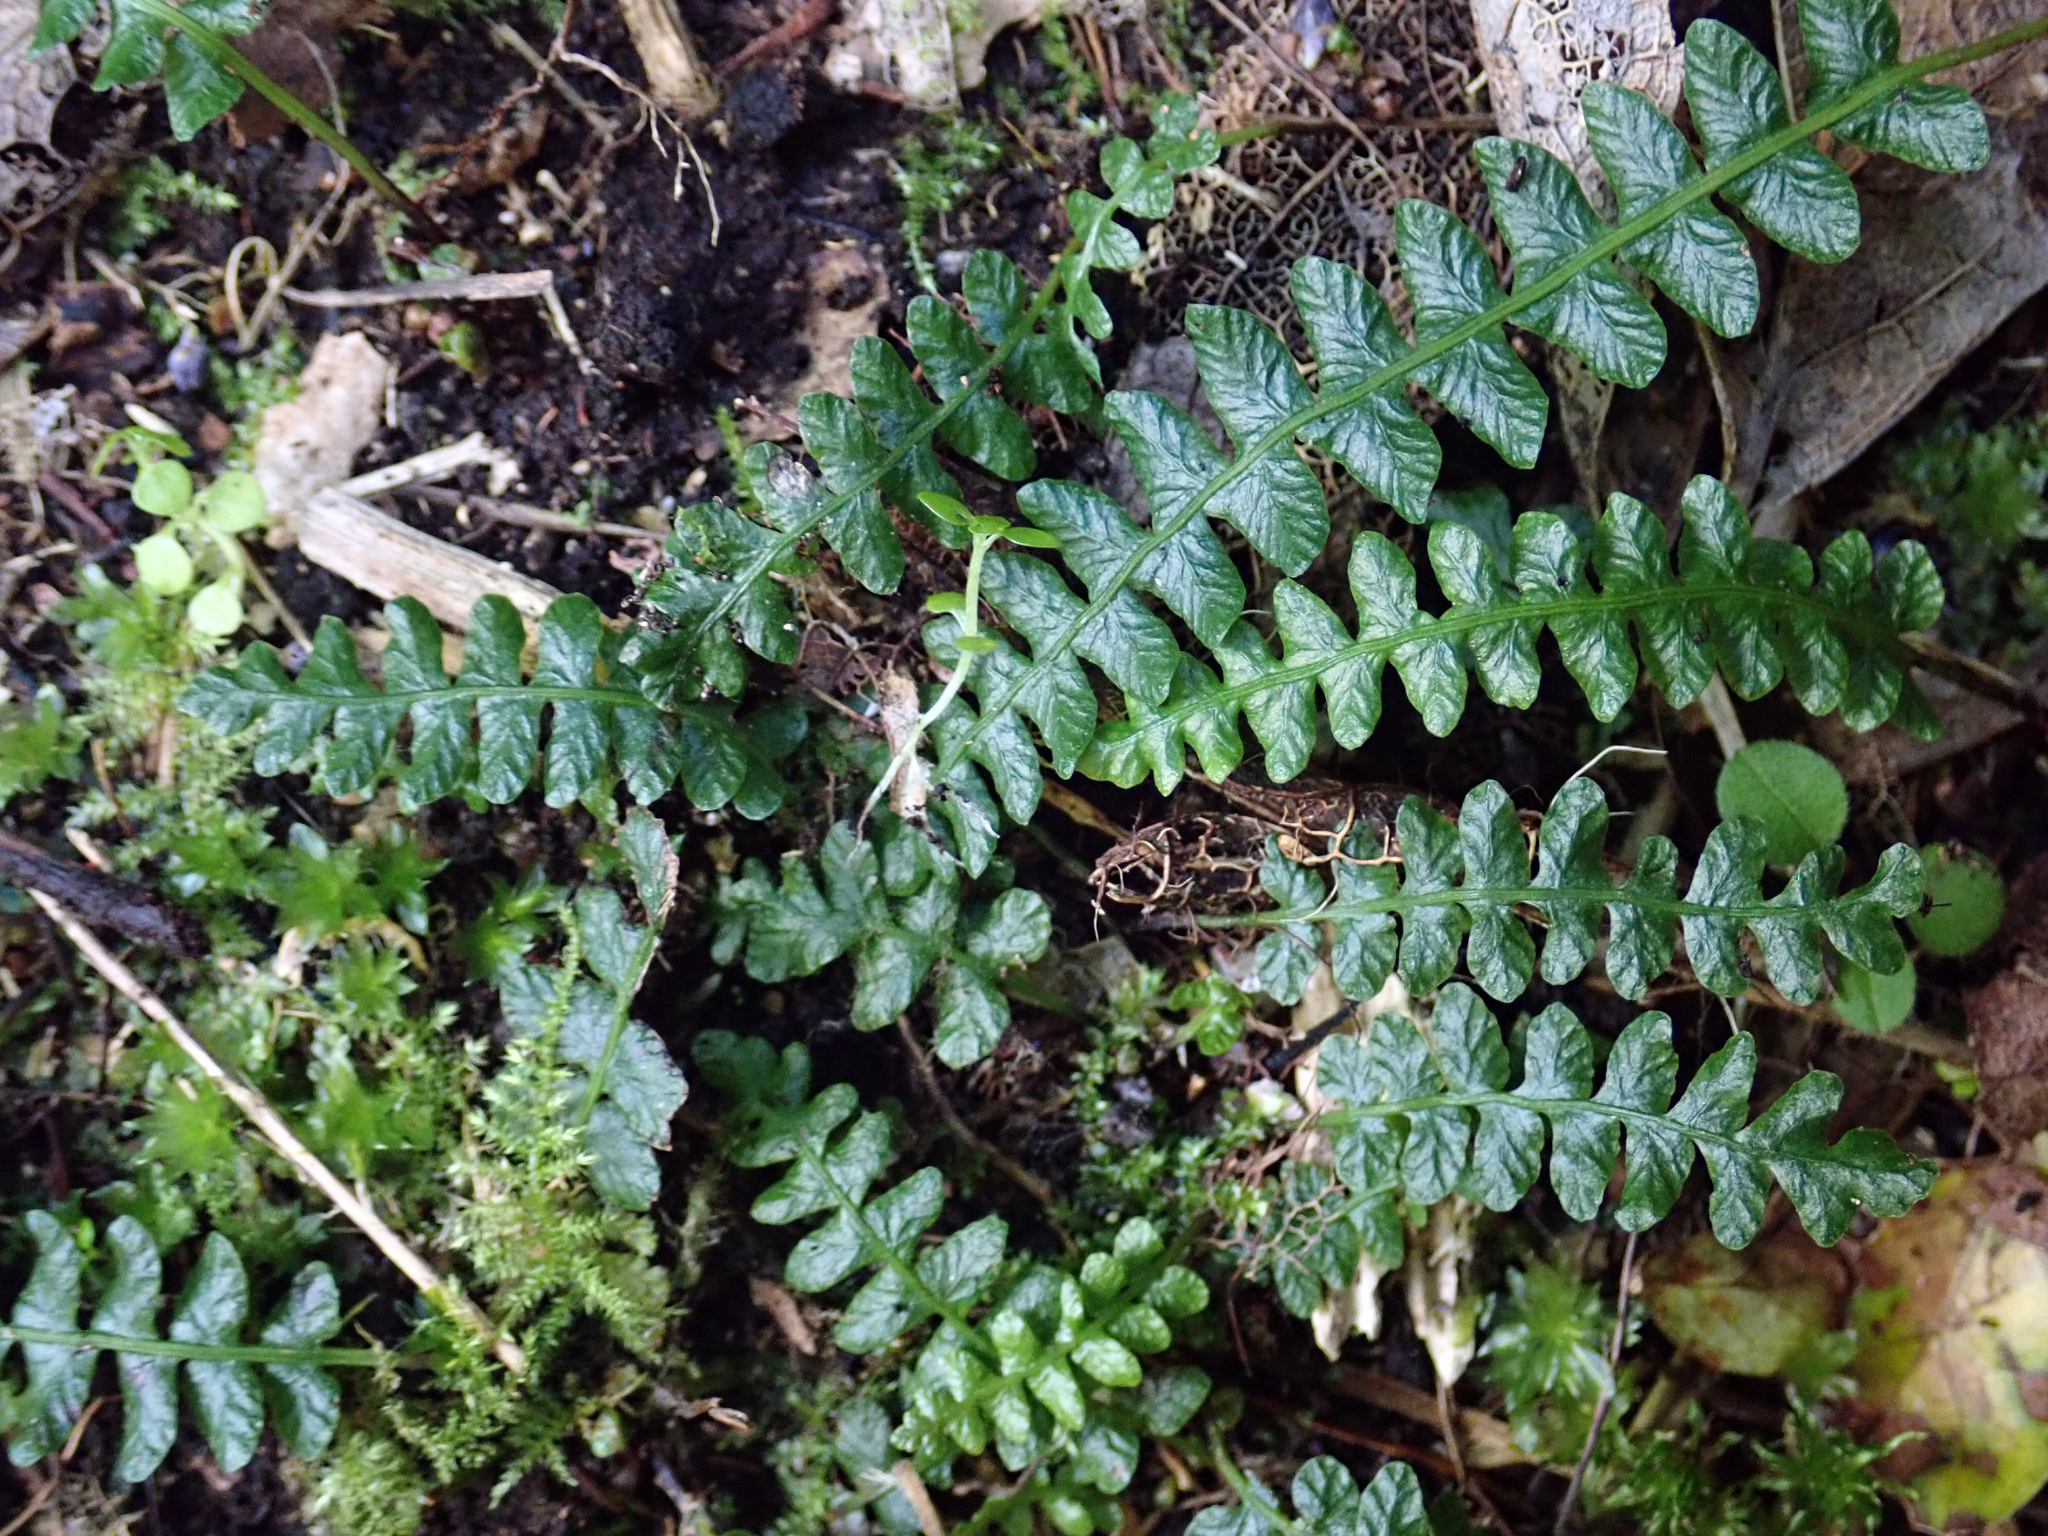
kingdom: Plantae
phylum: Tracheophyta
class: Polypodiopsida
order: Polypodiales
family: Blechnaceae
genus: Austroblechnum
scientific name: Austroblechnum penna-marina
